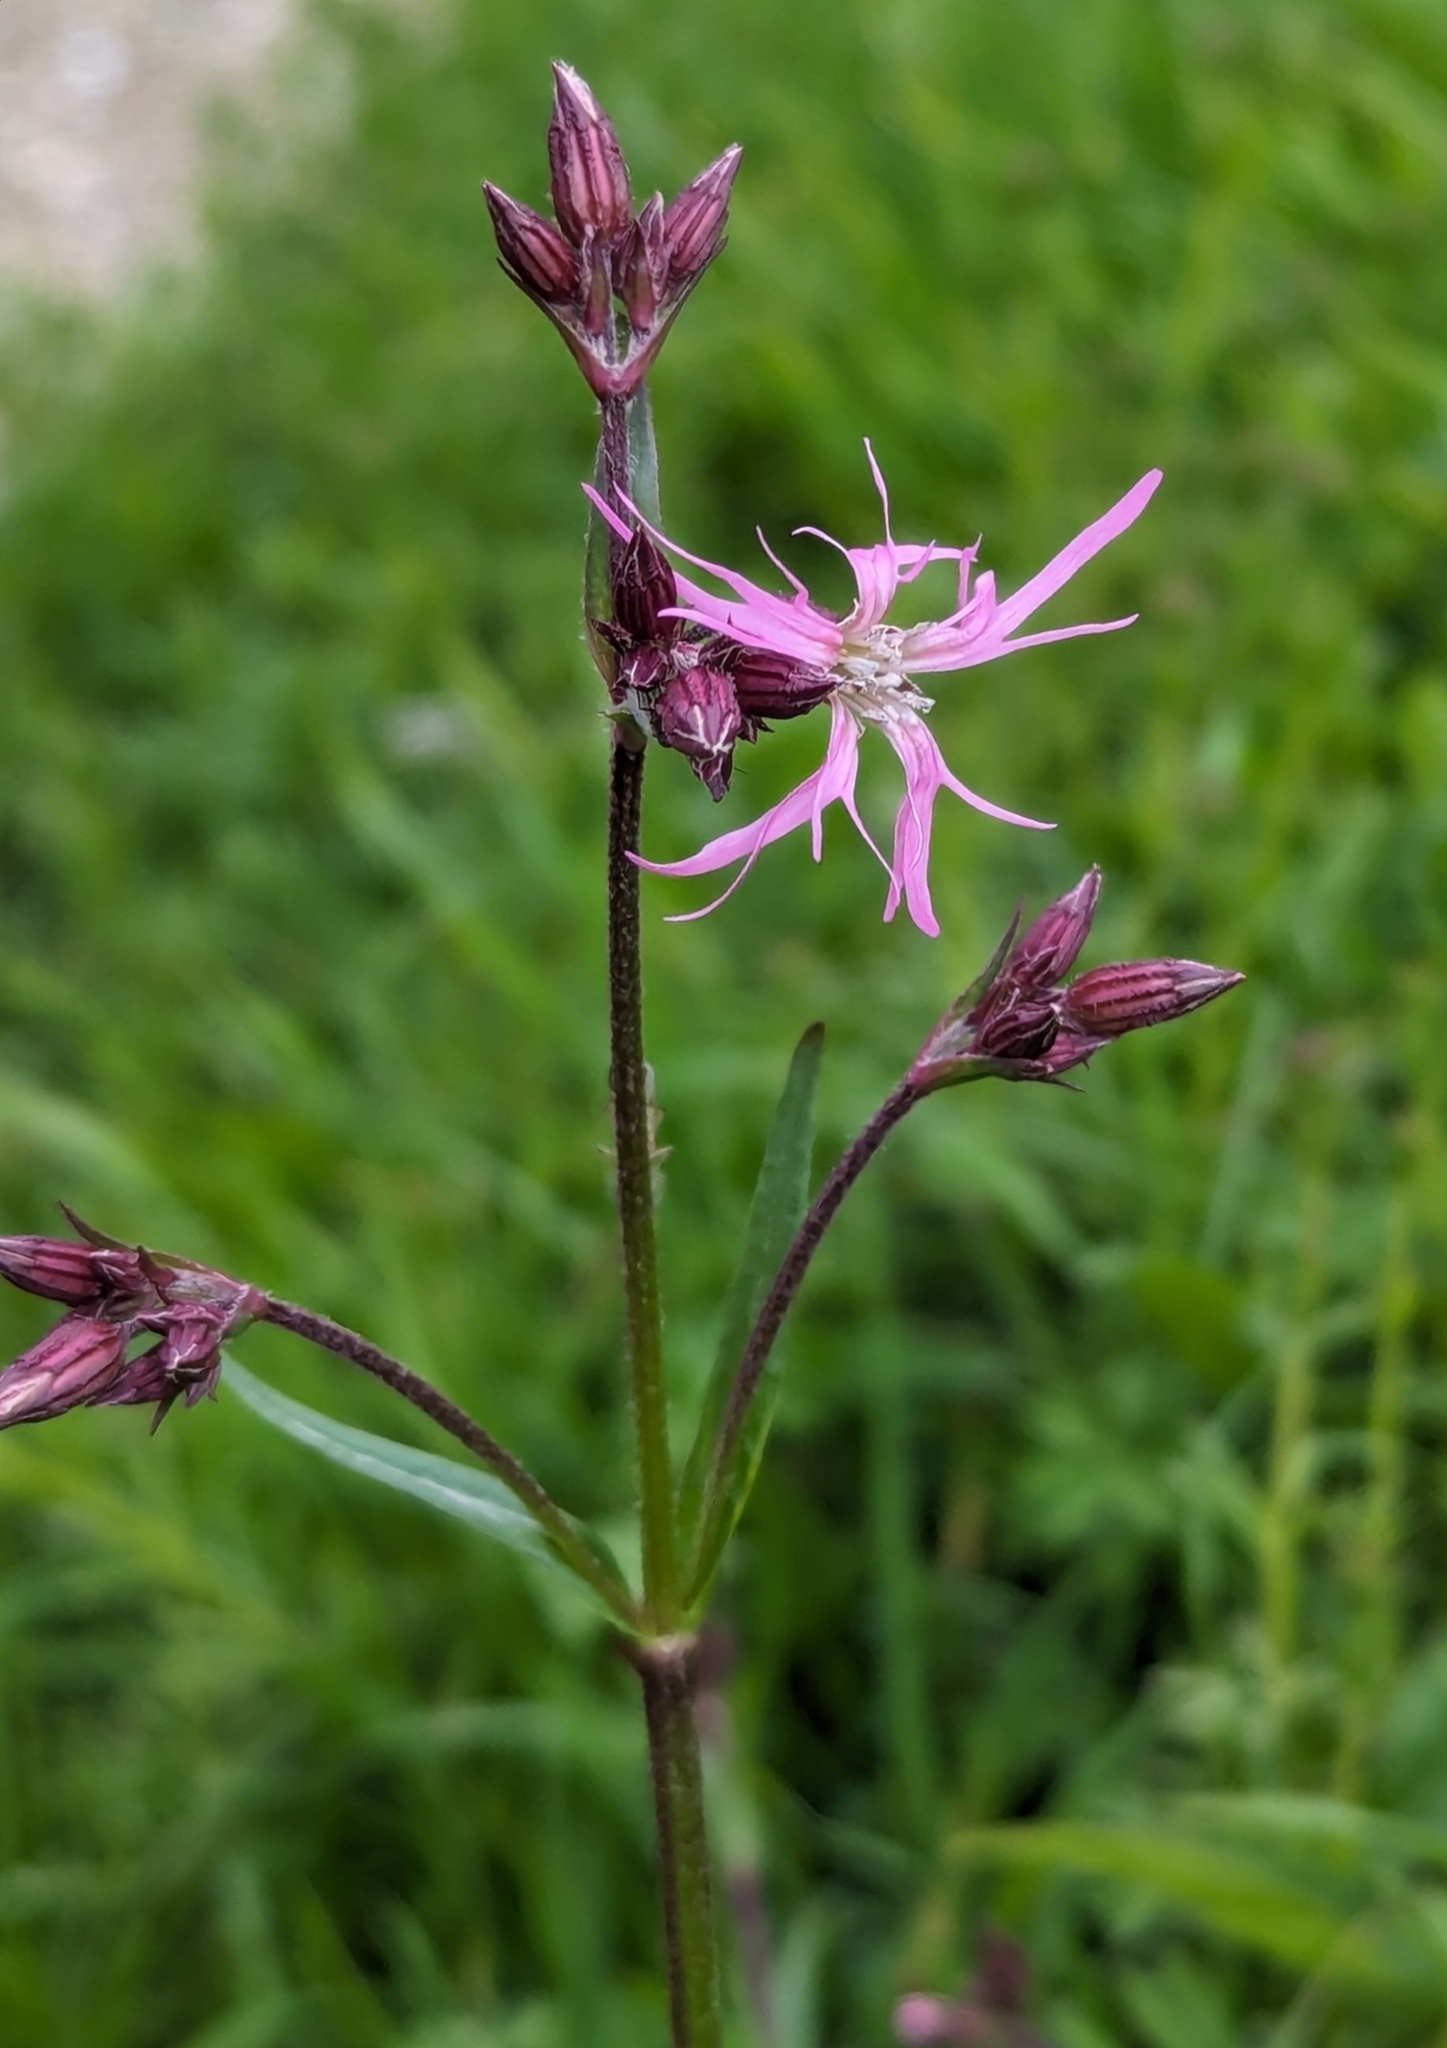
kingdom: Plantae
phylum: Tracheophyta
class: Magnoliopsida
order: Caryophyllales
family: Caryophyllaceae
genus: Silene
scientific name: Silene flos-cuculi
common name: Ragged-robin
